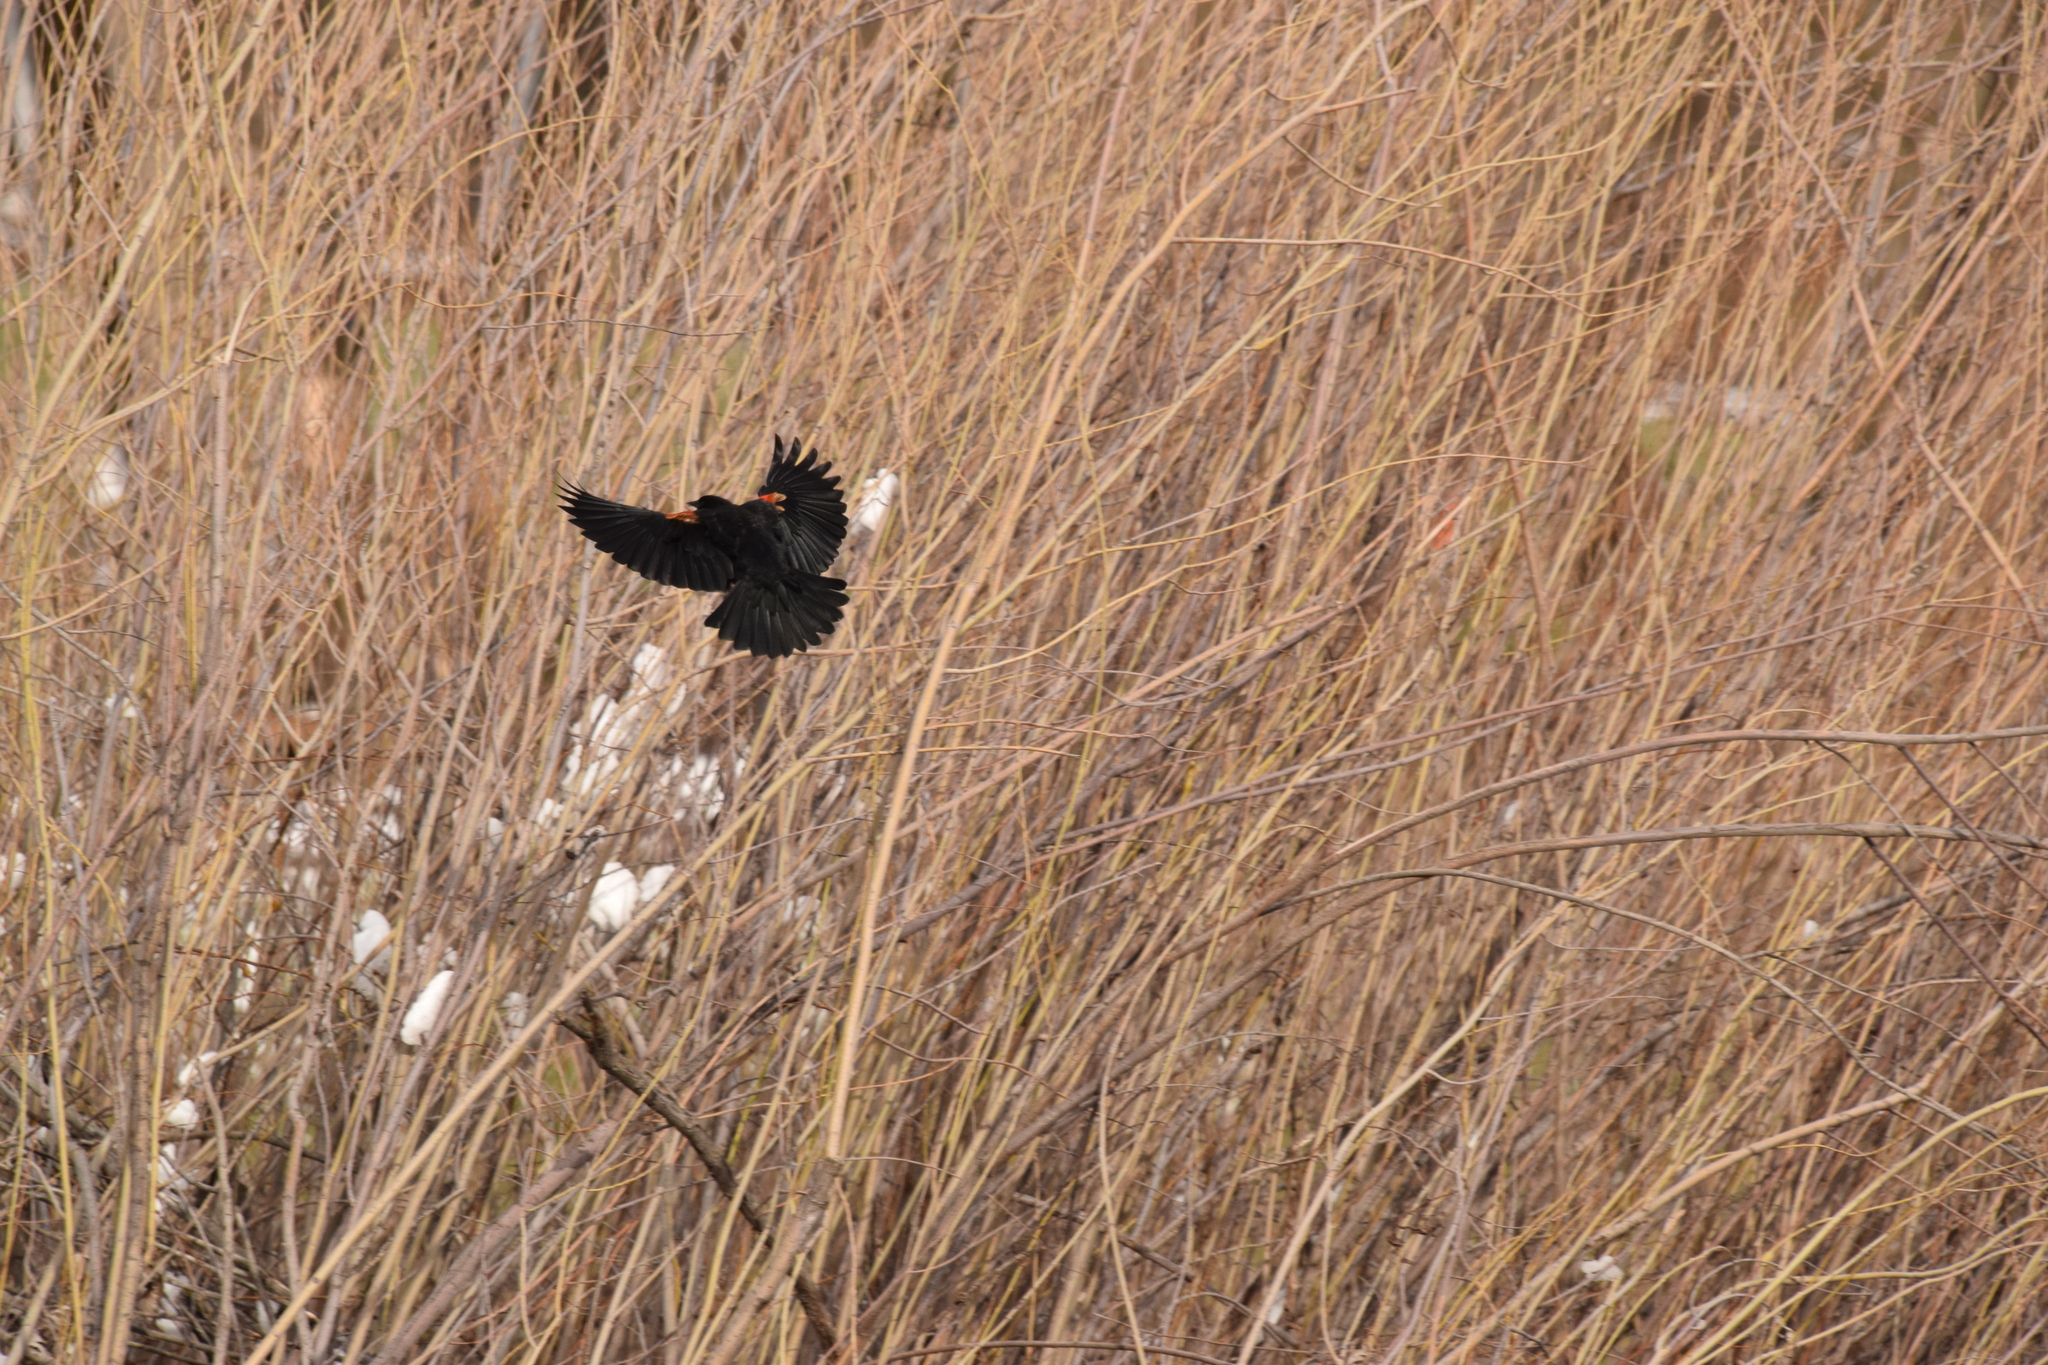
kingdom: Animalia
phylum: Chordata
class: Aves
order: Passeriformes
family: Icteridae
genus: Agelaius
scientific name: Agelaius phoeniceus
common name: Red-winged blackbird
